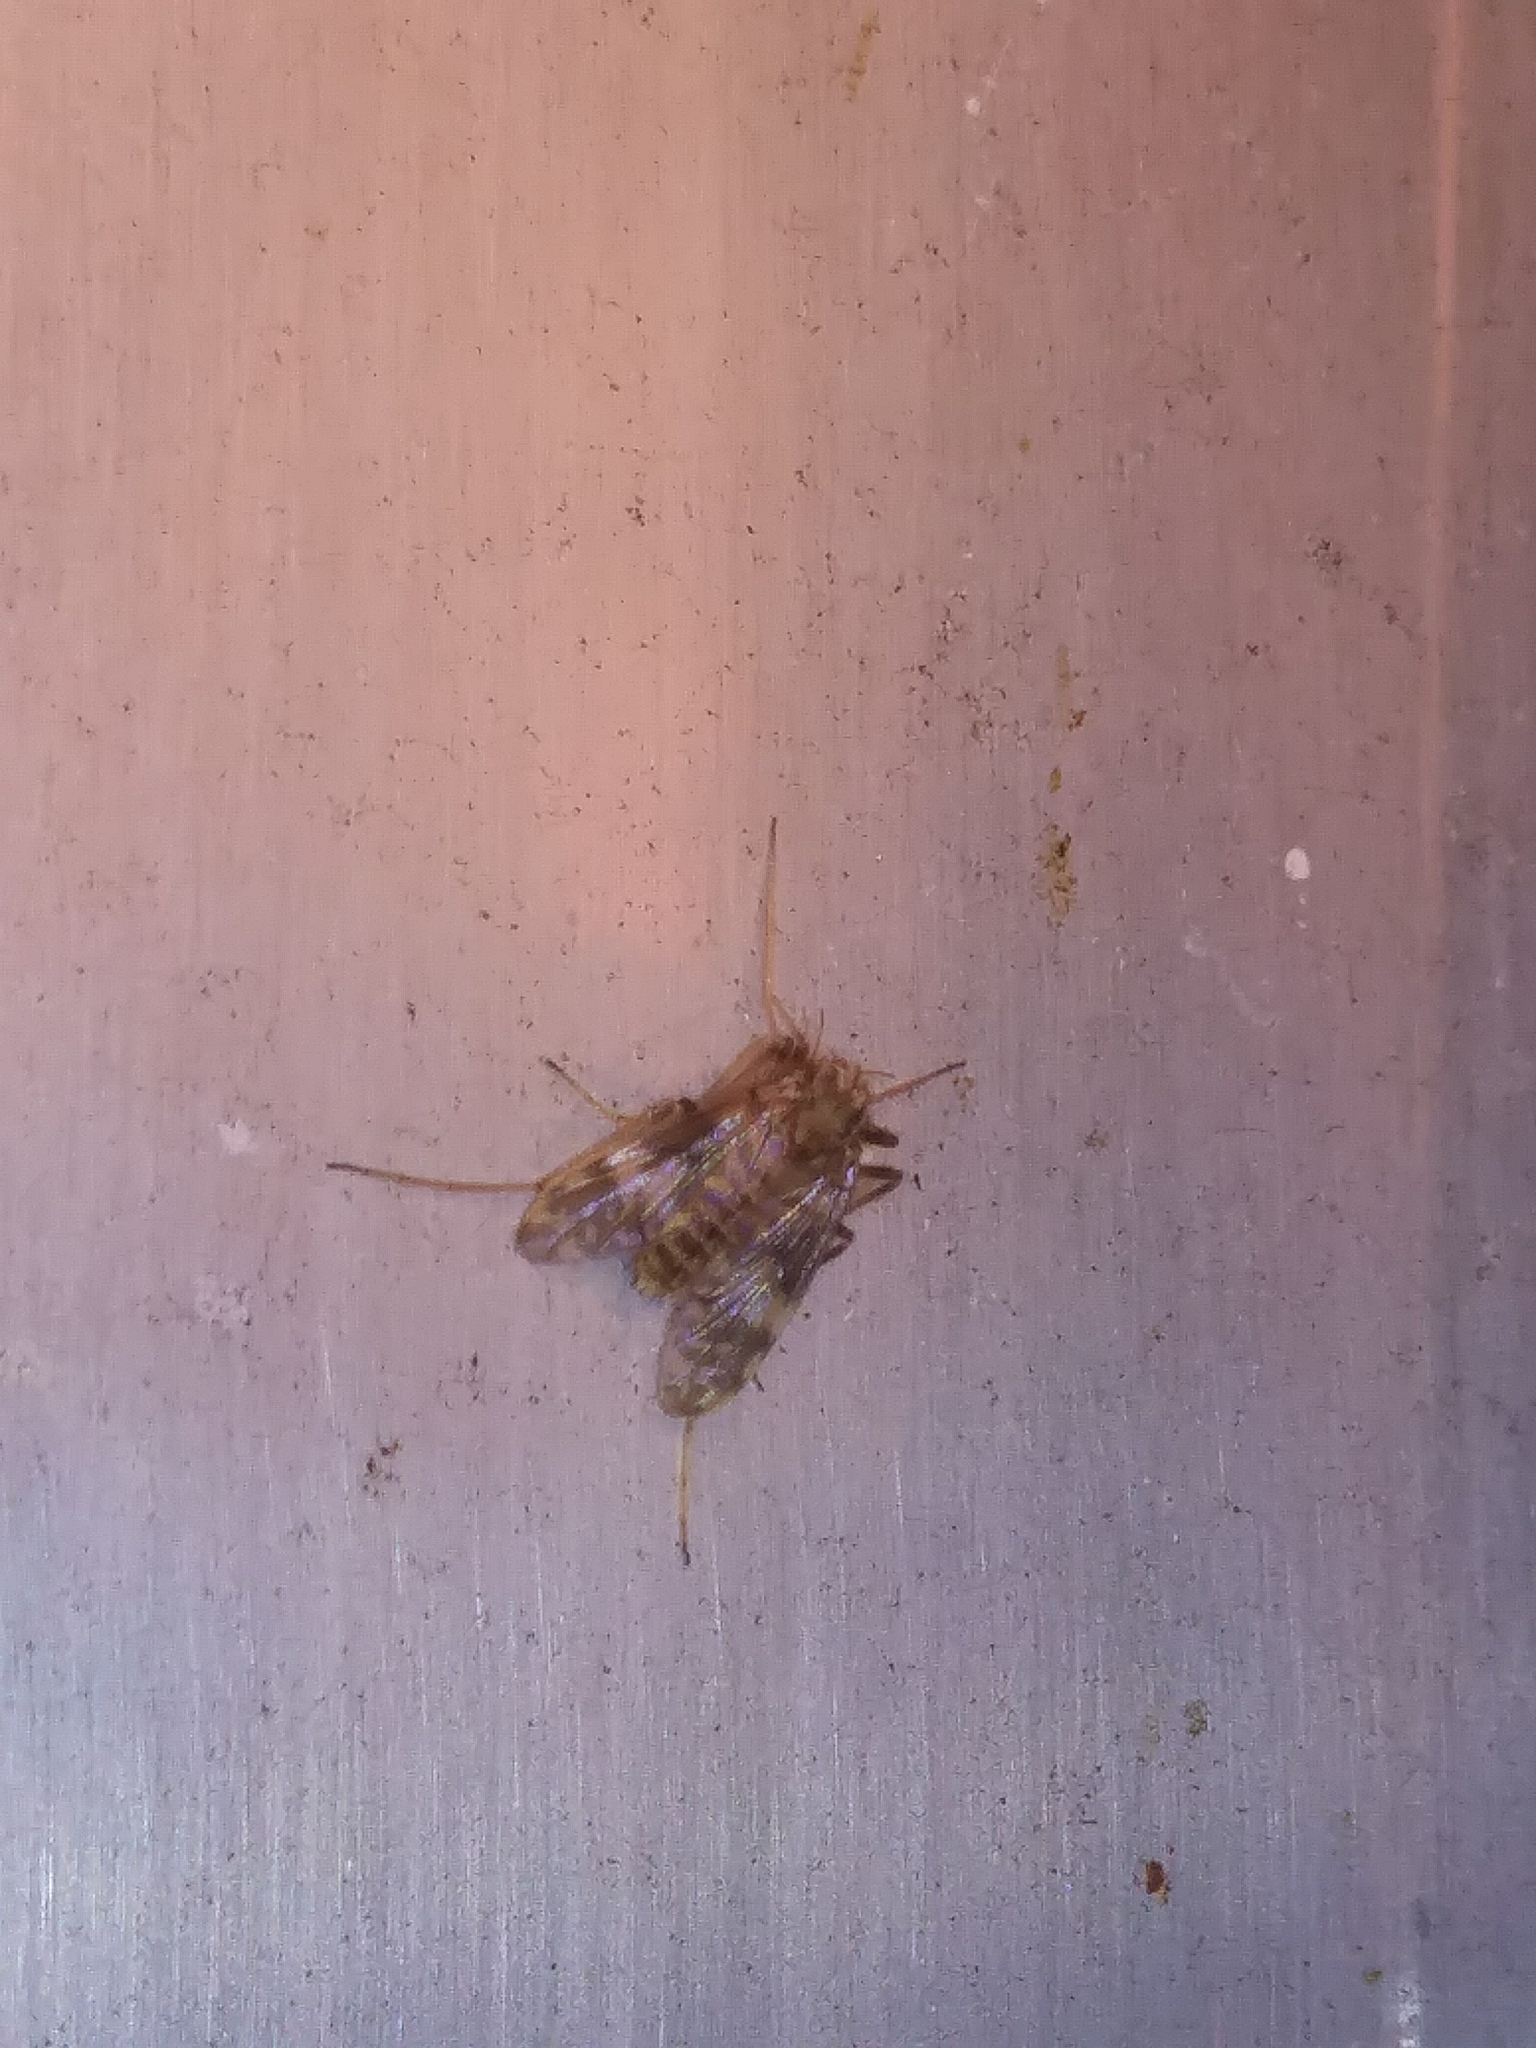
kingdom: Animalia
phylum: Arthropoda
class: Insecta
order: Diptera
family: Chironomidae
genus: Psectrotanypus
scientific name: Psectrotanypus dyari
